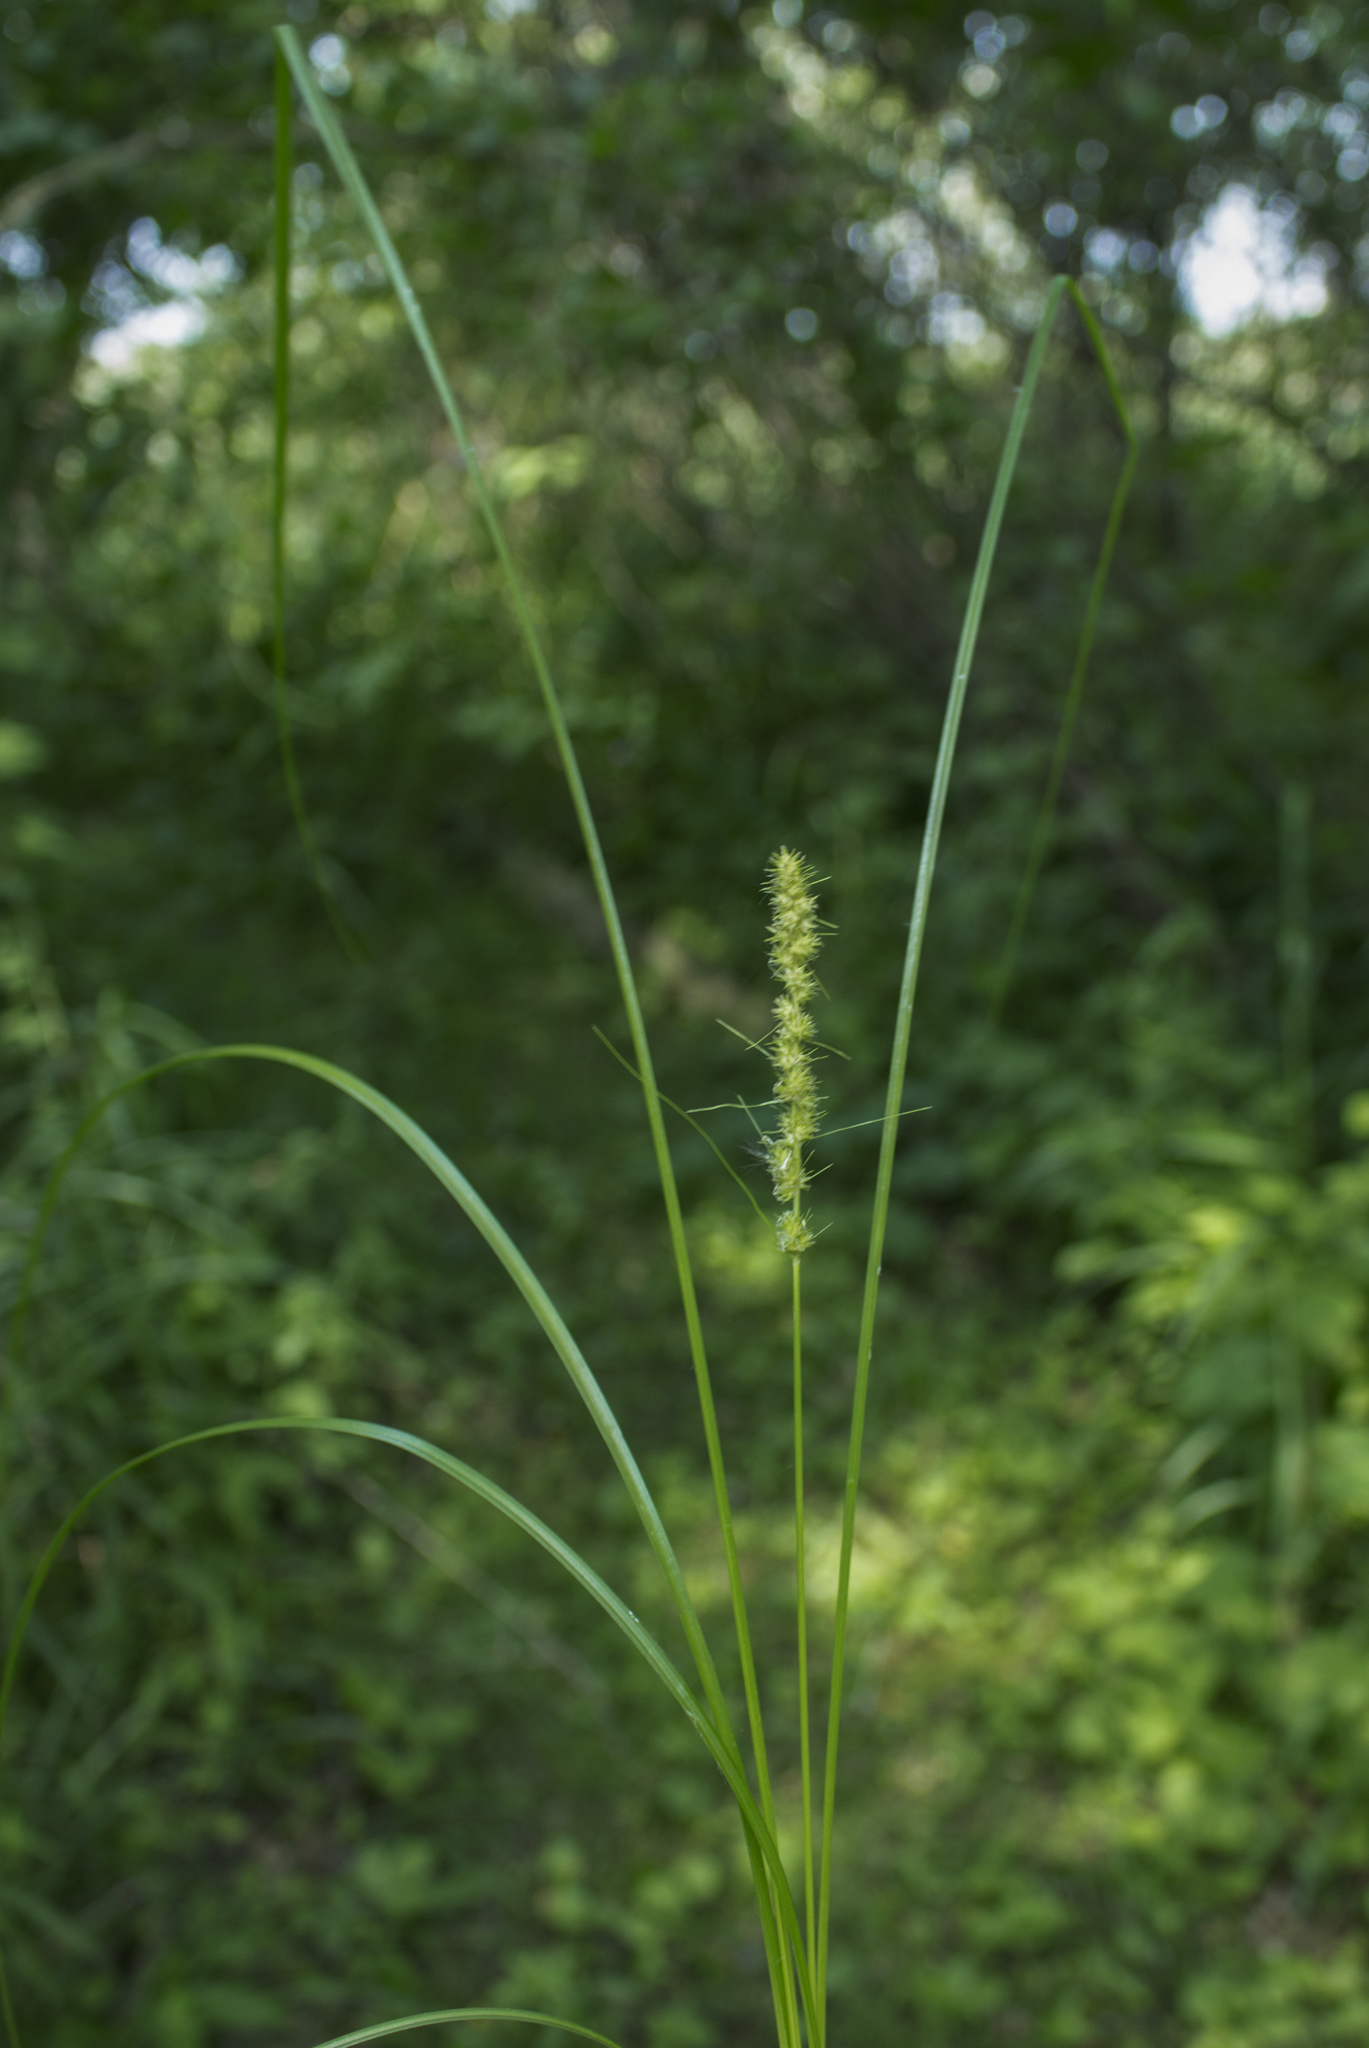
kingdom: Plantae
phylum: Tracheophyta
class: Liliopsida
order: Poales
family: Cyperaceae
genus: Carex
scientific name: Carex vulpinoidea
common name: American fox-sedge
